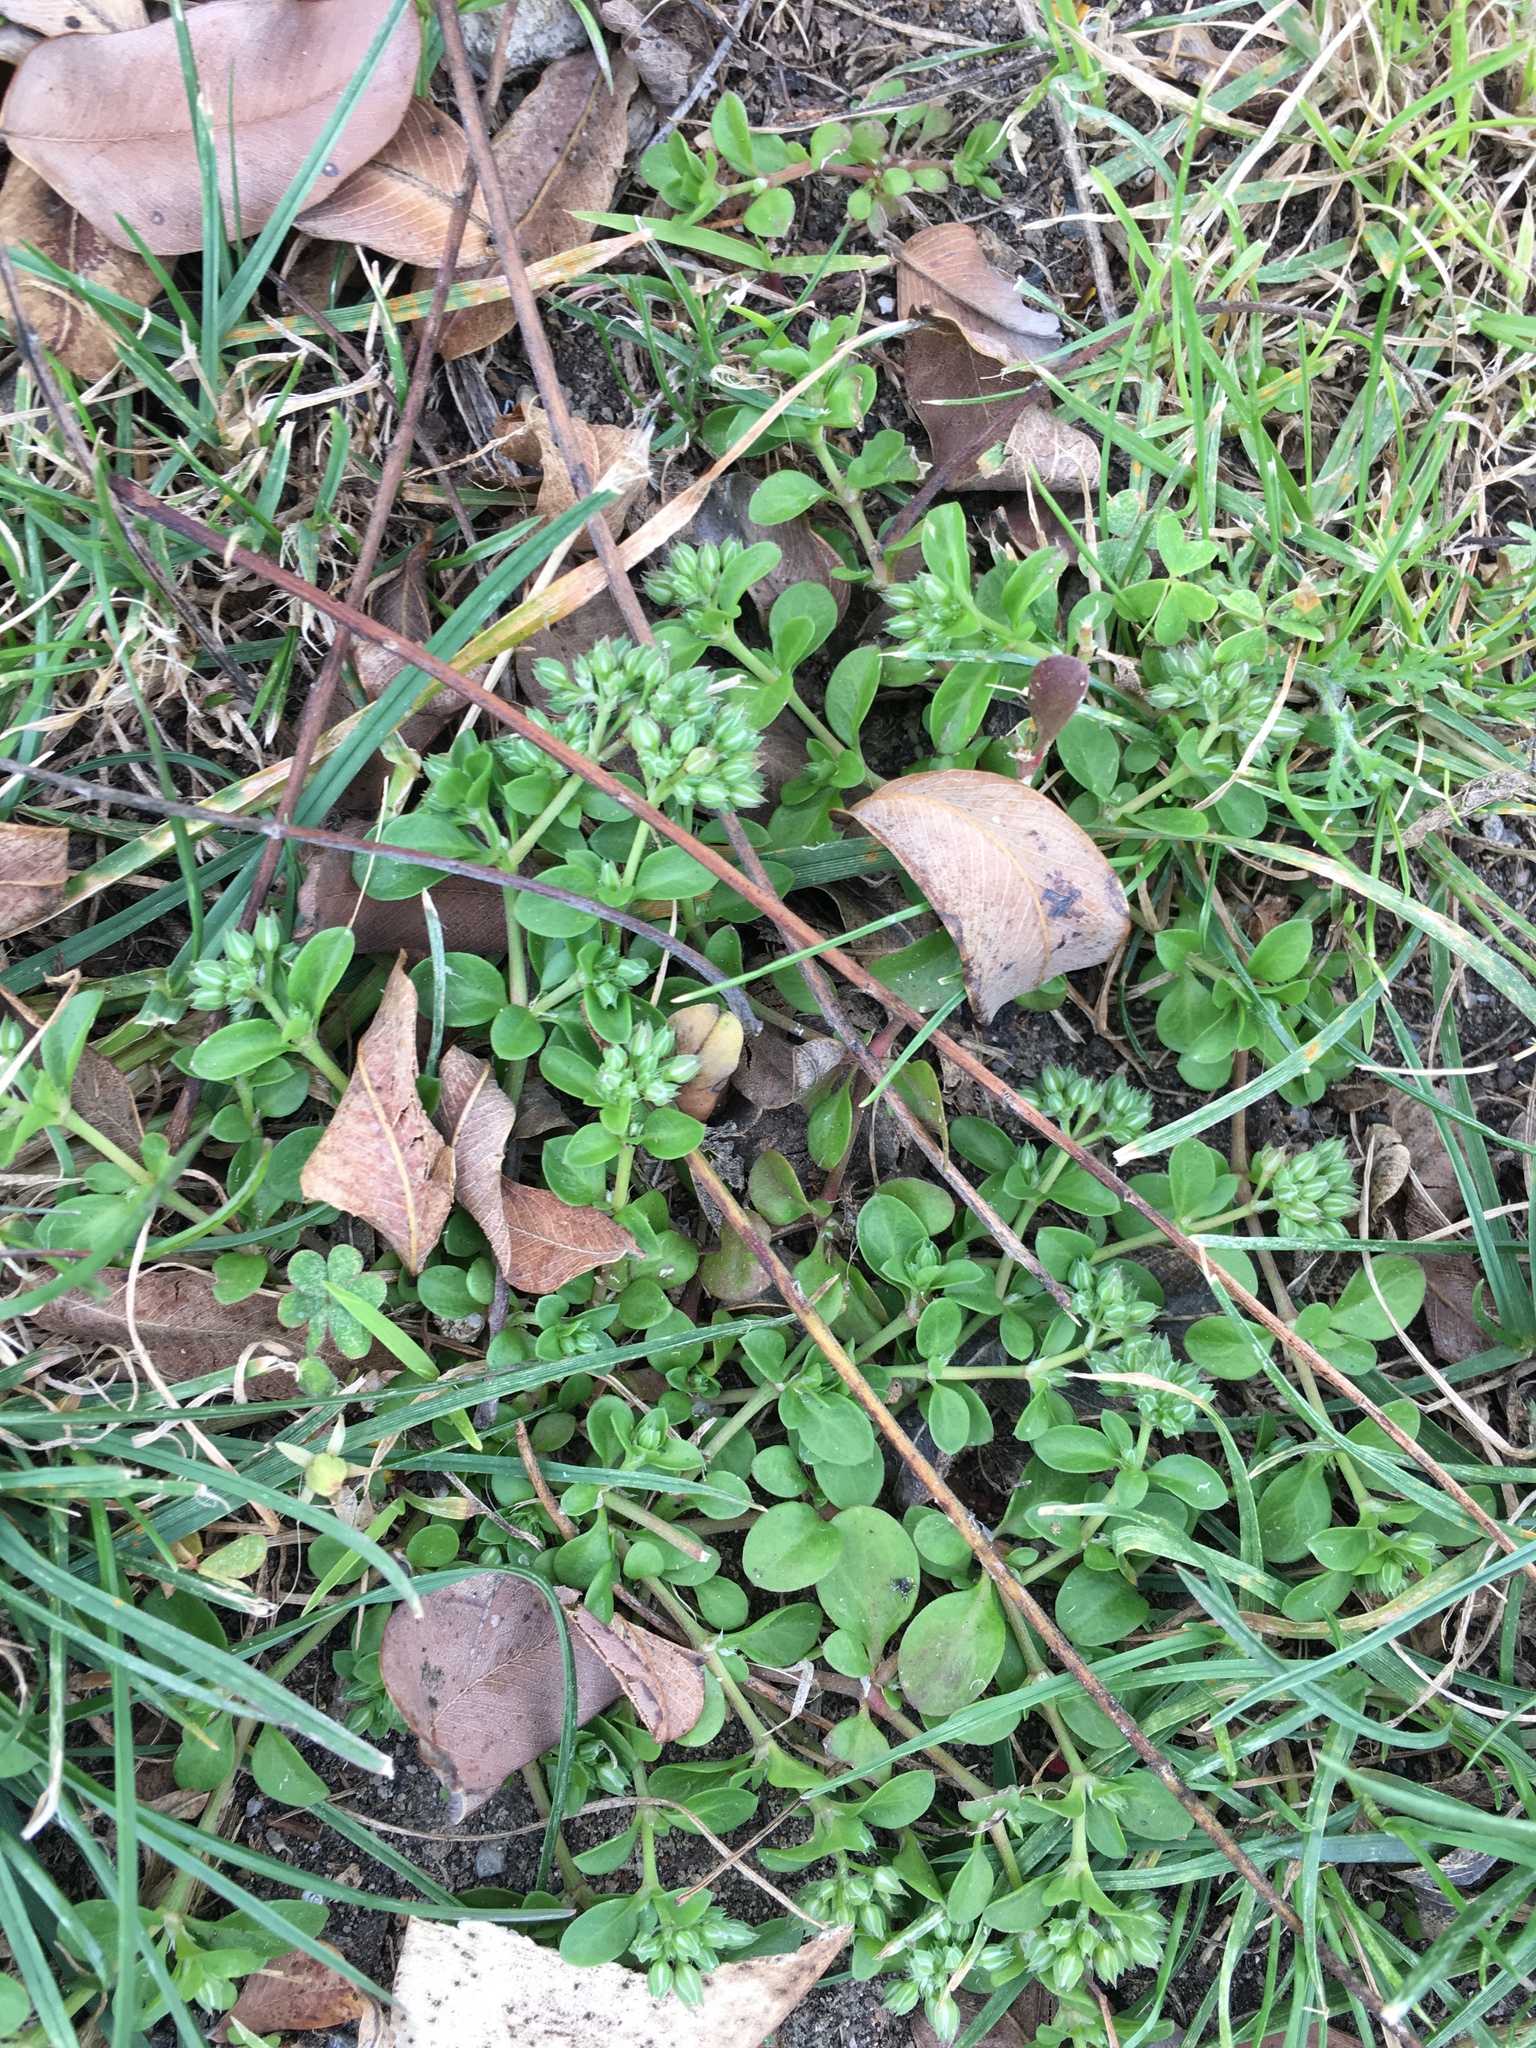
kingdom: Plantae
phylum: Tracheophyta
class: Magnoliopsida
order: Caryophyllales
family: Caryophyllaceae
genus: Polycarpon
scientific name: Polycarpon tetraphyllum
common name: Four-leaved all-seed
